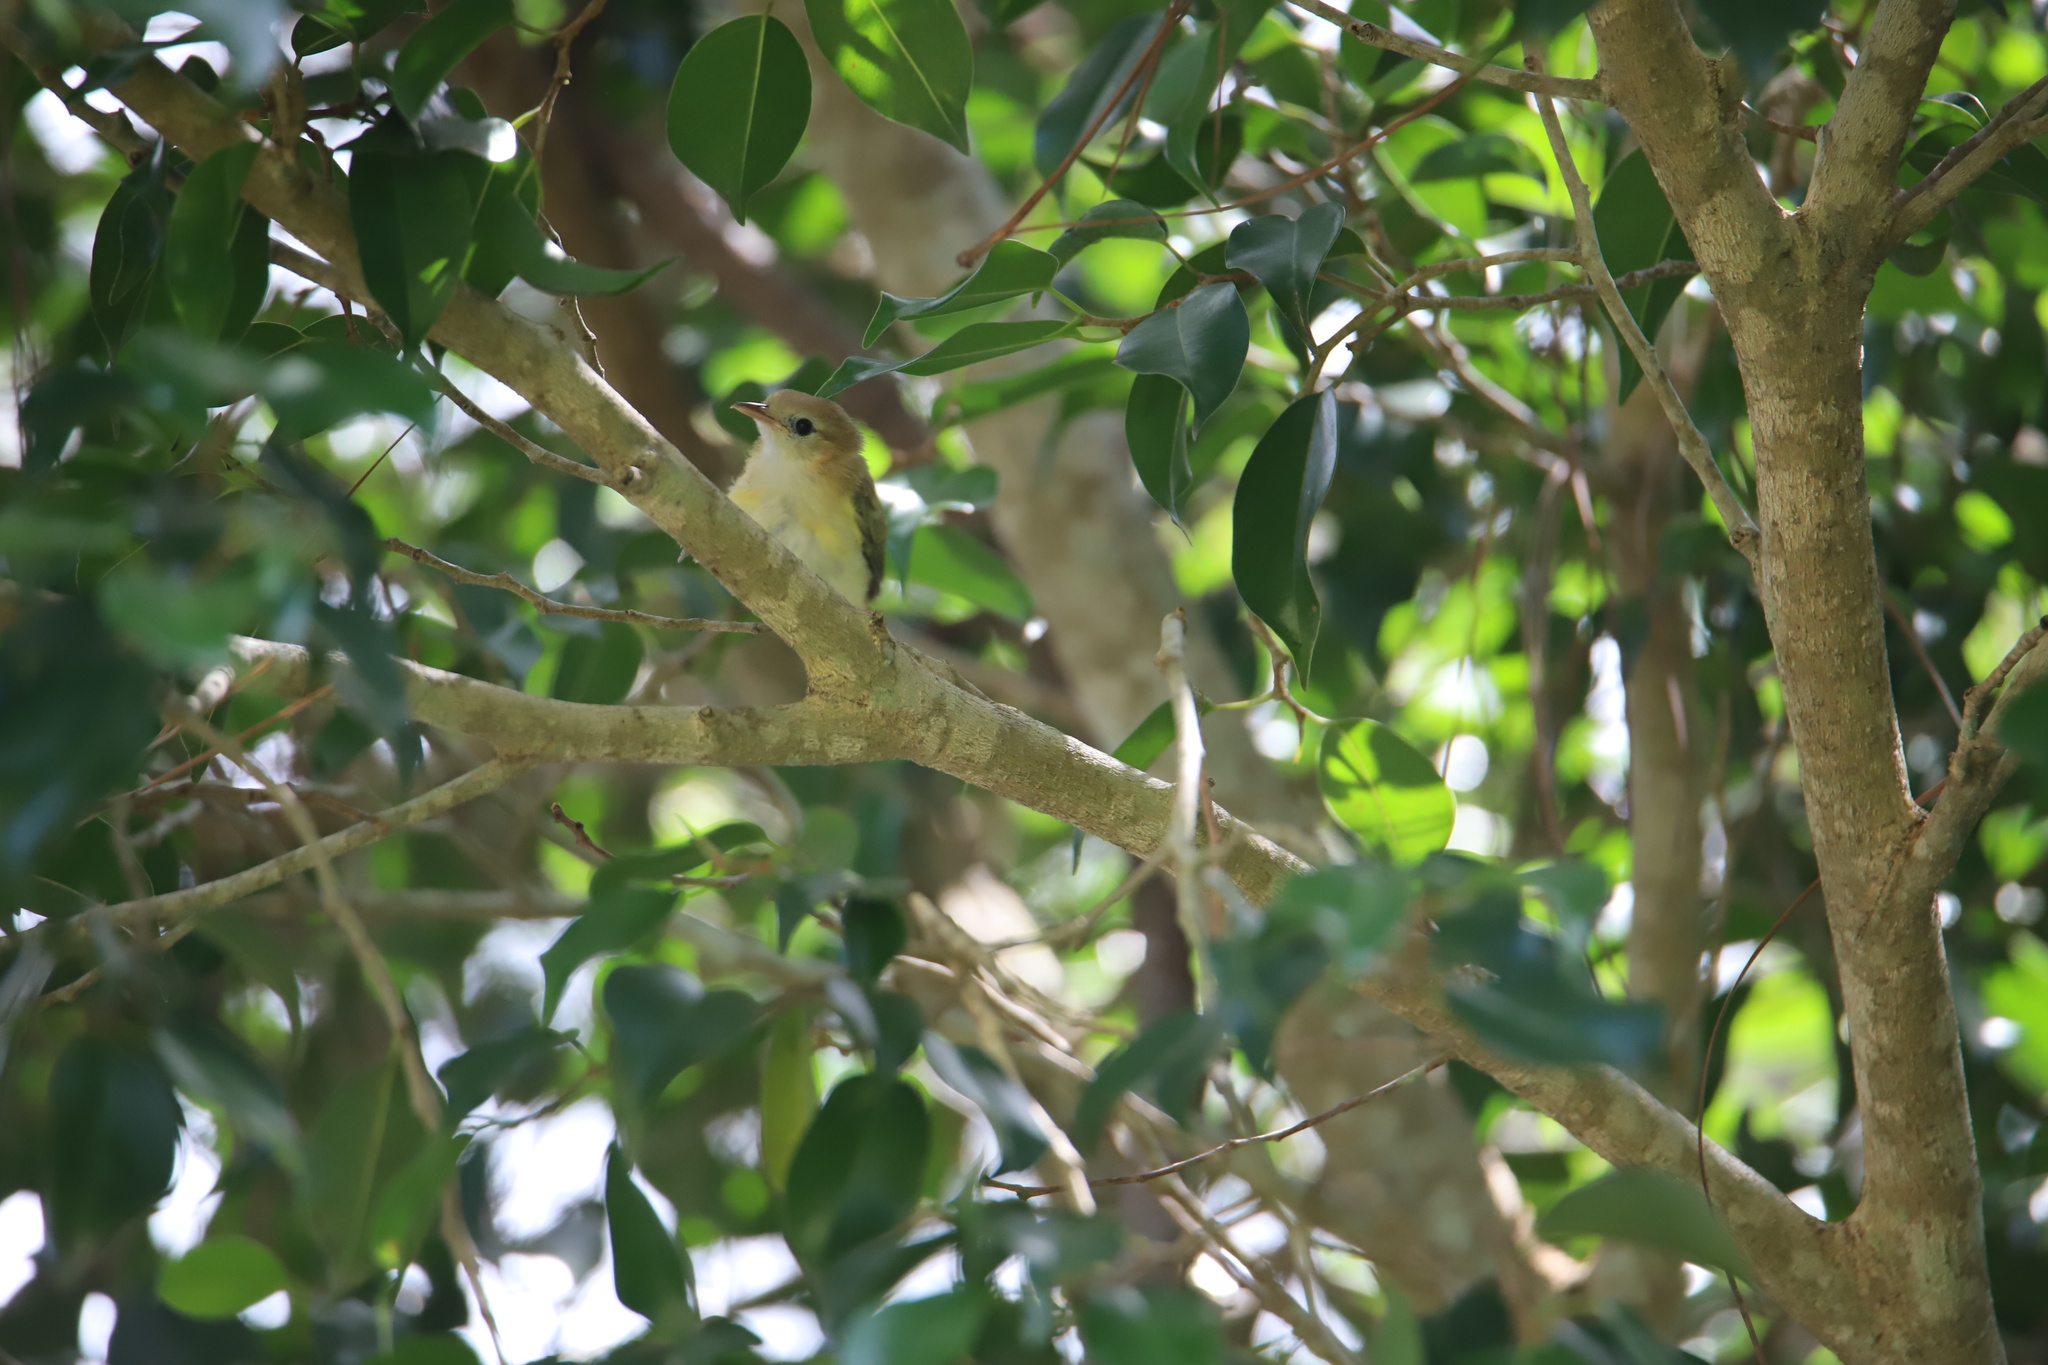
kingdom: Animalia
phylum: Chordata
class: Aves
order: Passeriformes
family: Vireonidae
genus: Hylophilus
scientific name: Hylophilus aurantiifrons
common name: Golden-fronted greenlet
